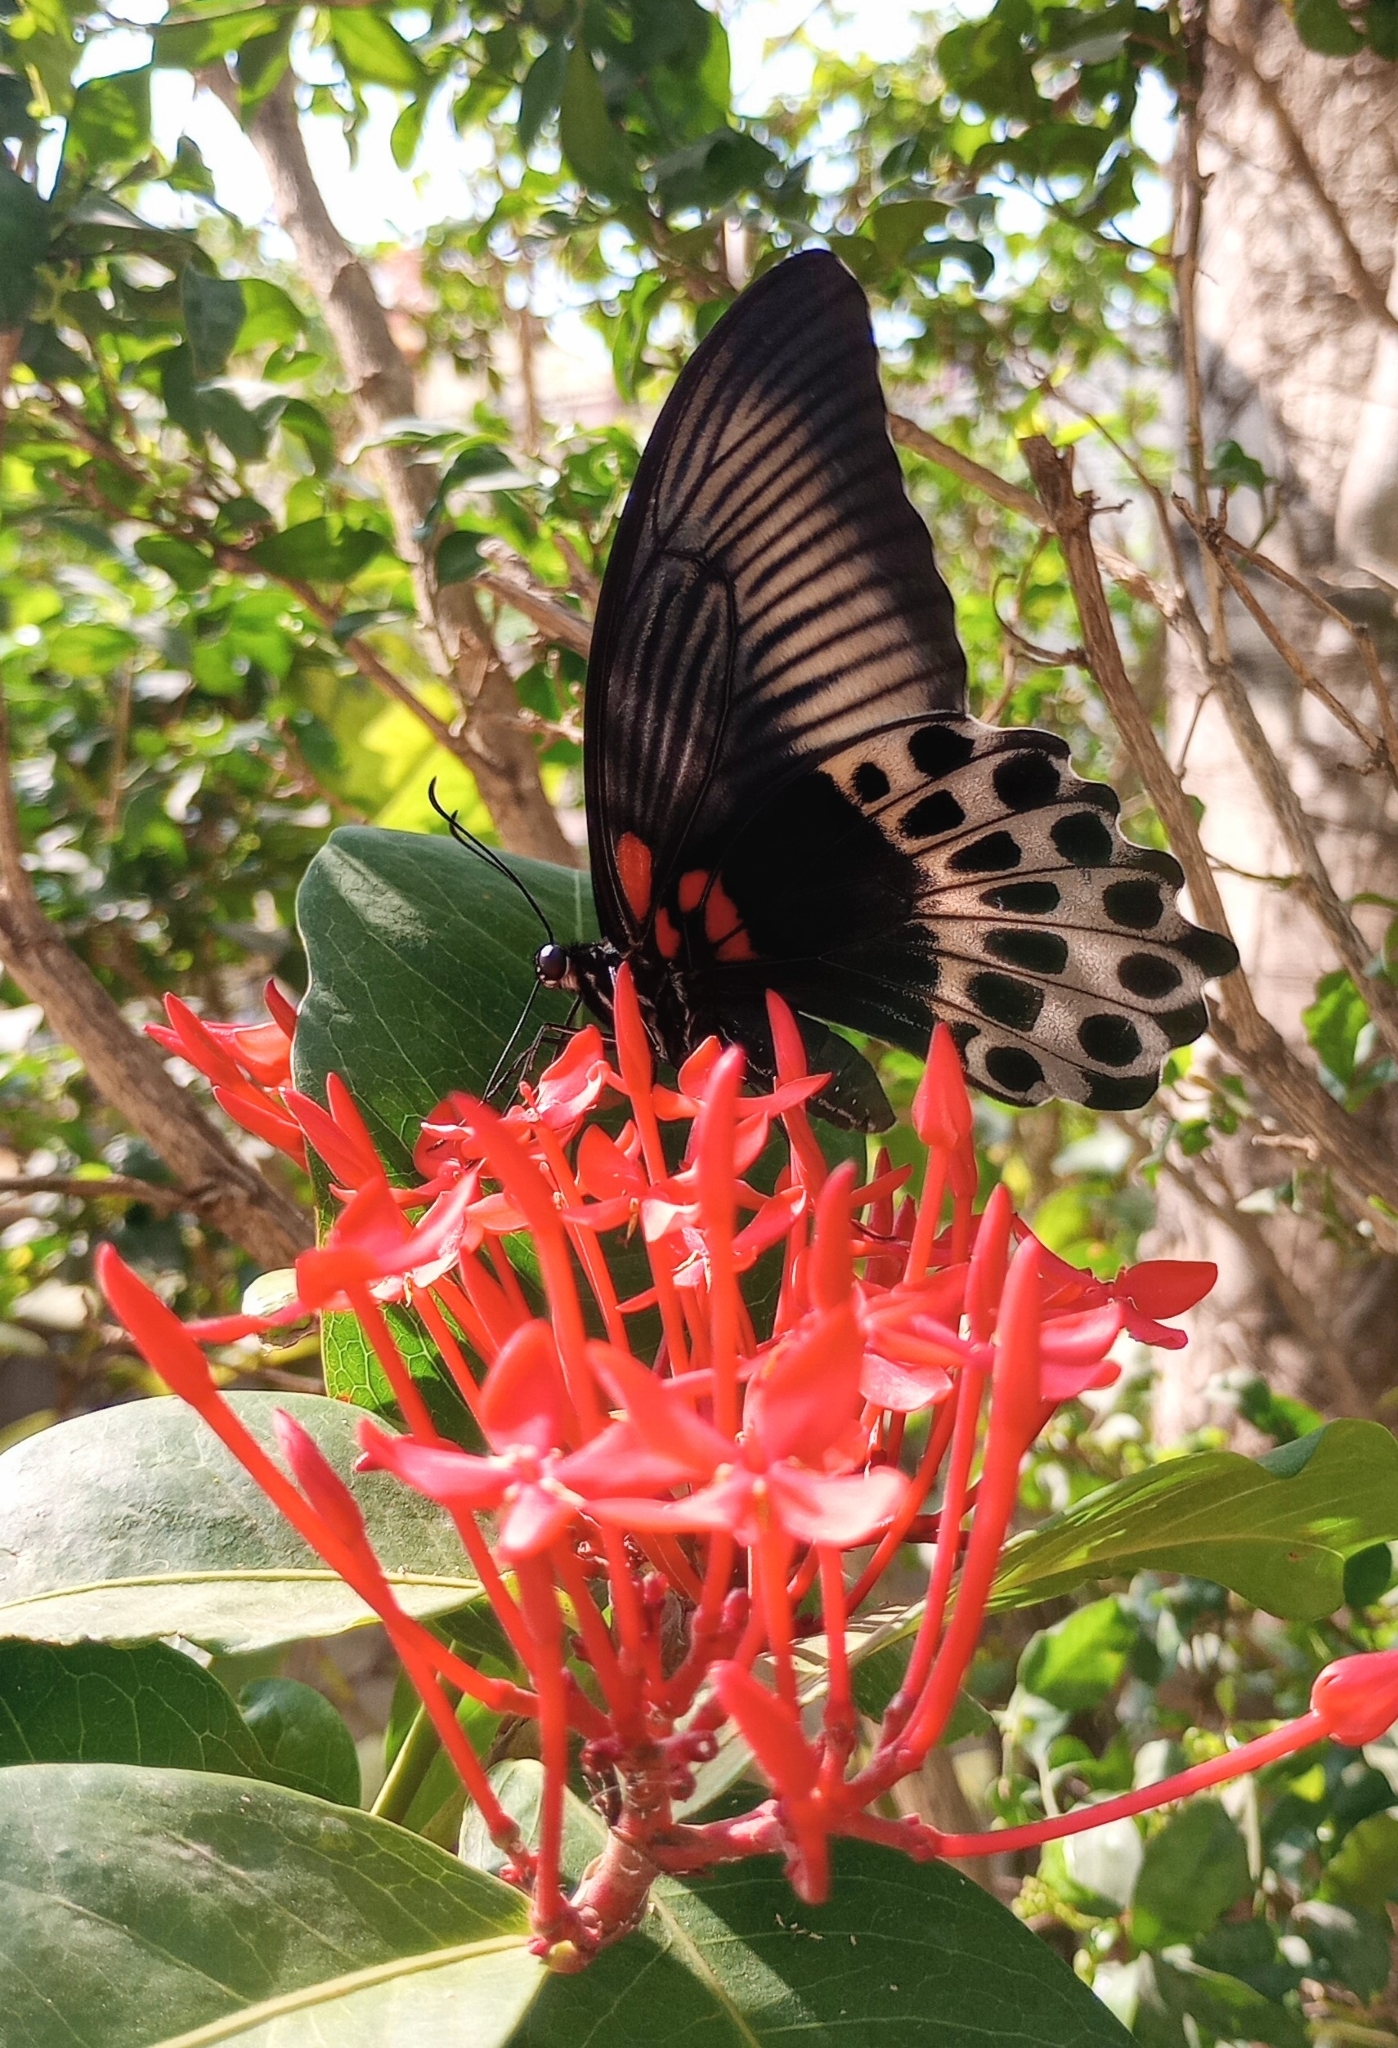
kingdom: Animalia
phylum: Arthropoda
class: Insecta
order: Lepidoptera
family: Papilionidae
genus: Papilio
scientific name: Papilio memnon
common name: Great mormon
